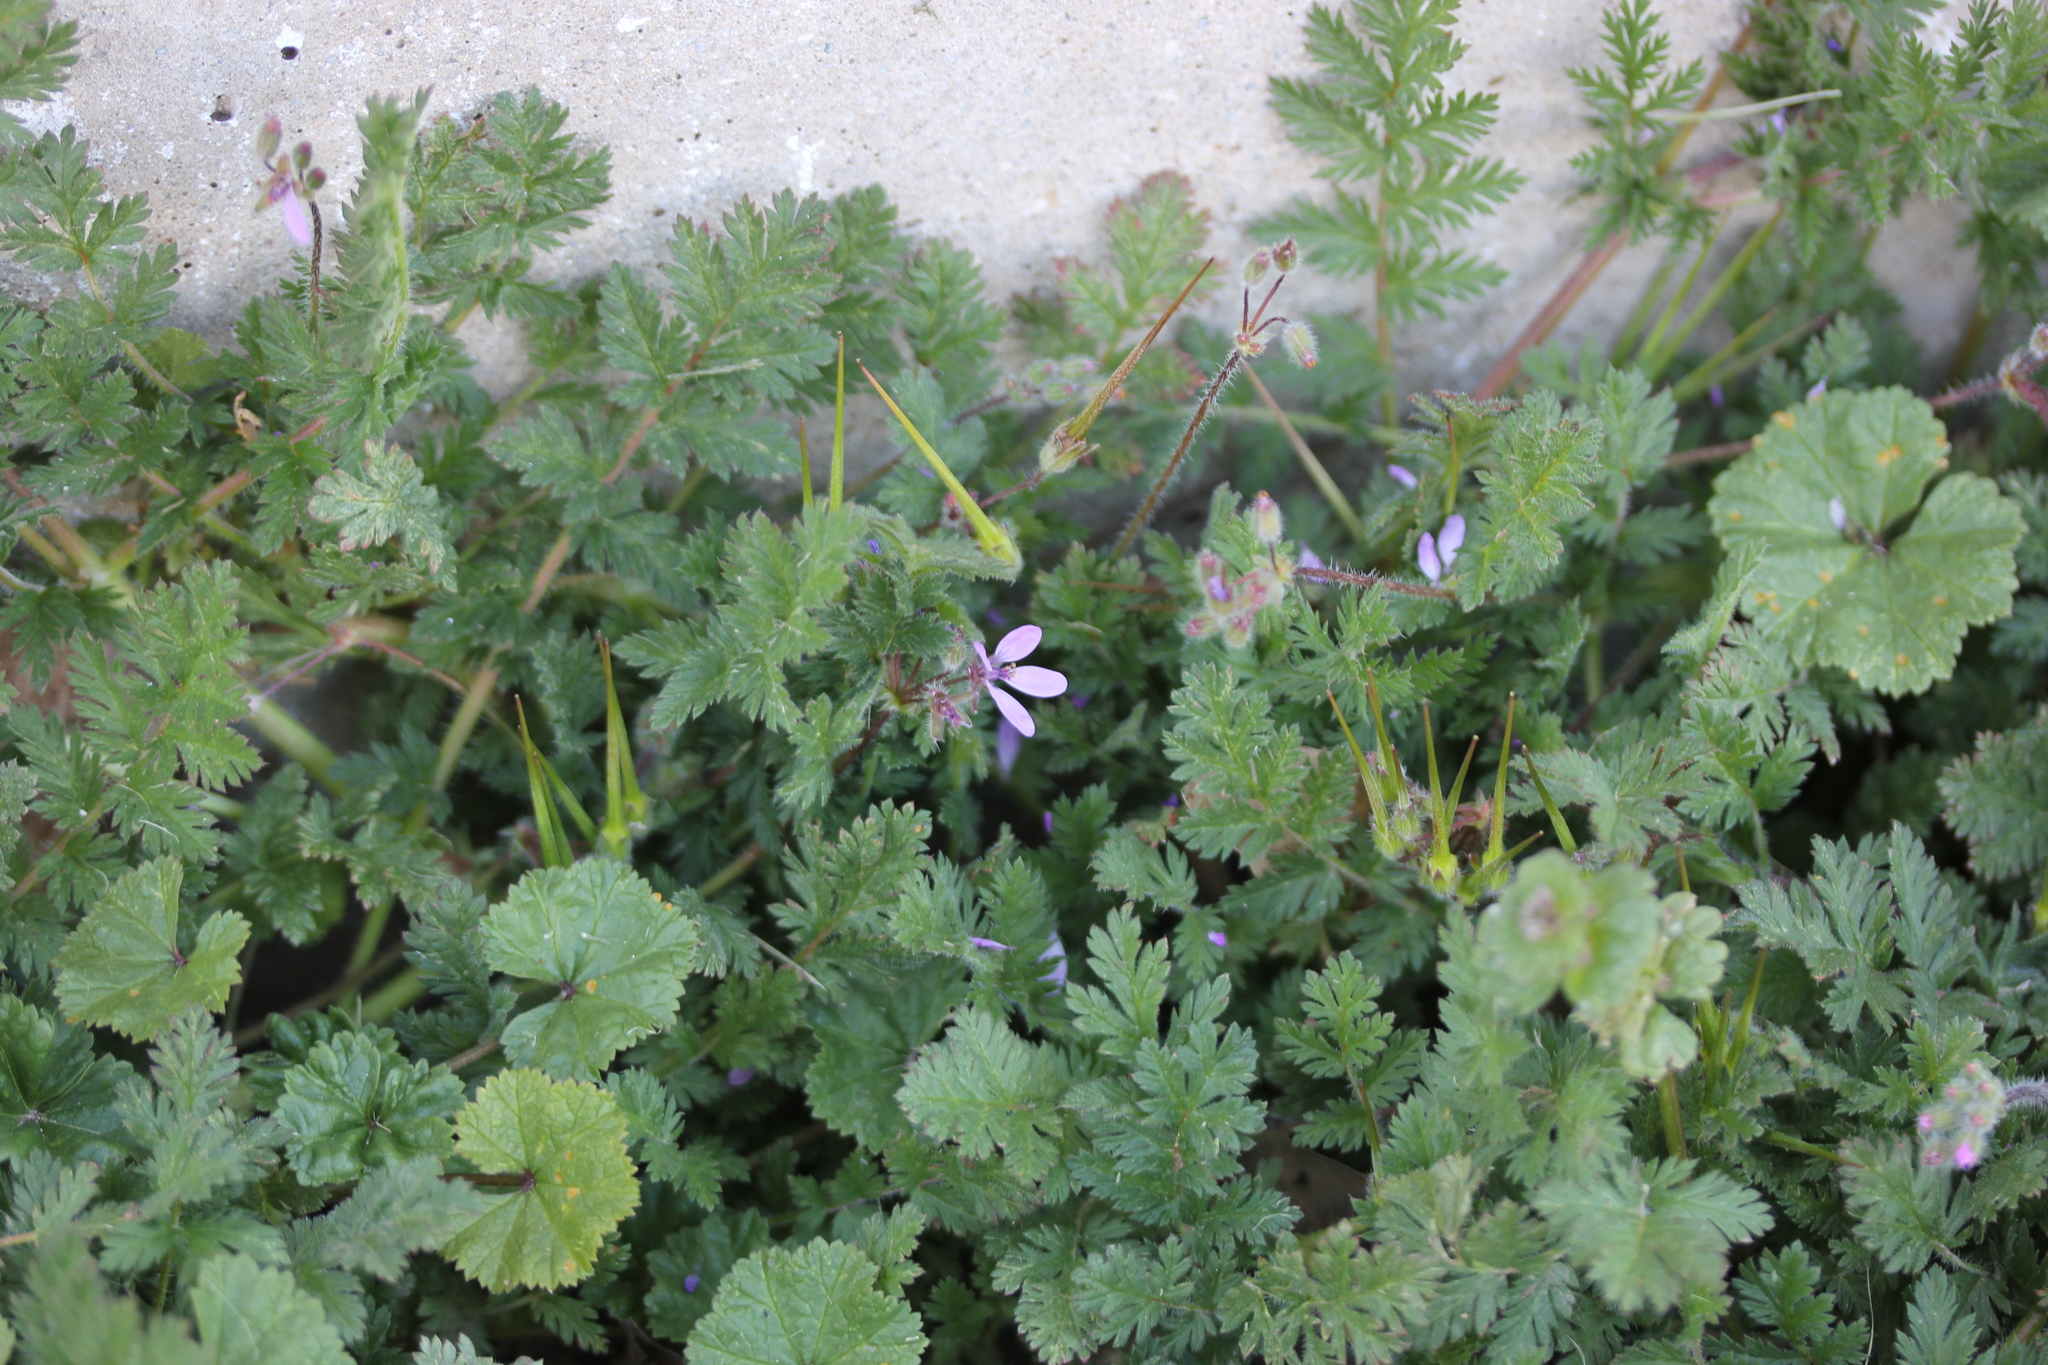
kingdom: Plantae
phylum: Tracheophyta
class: Magnoliopsida
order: Geraniales
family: Geraniaceae
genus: Erodium
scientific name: Erodium cicutarium
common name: Common stork's-bill
